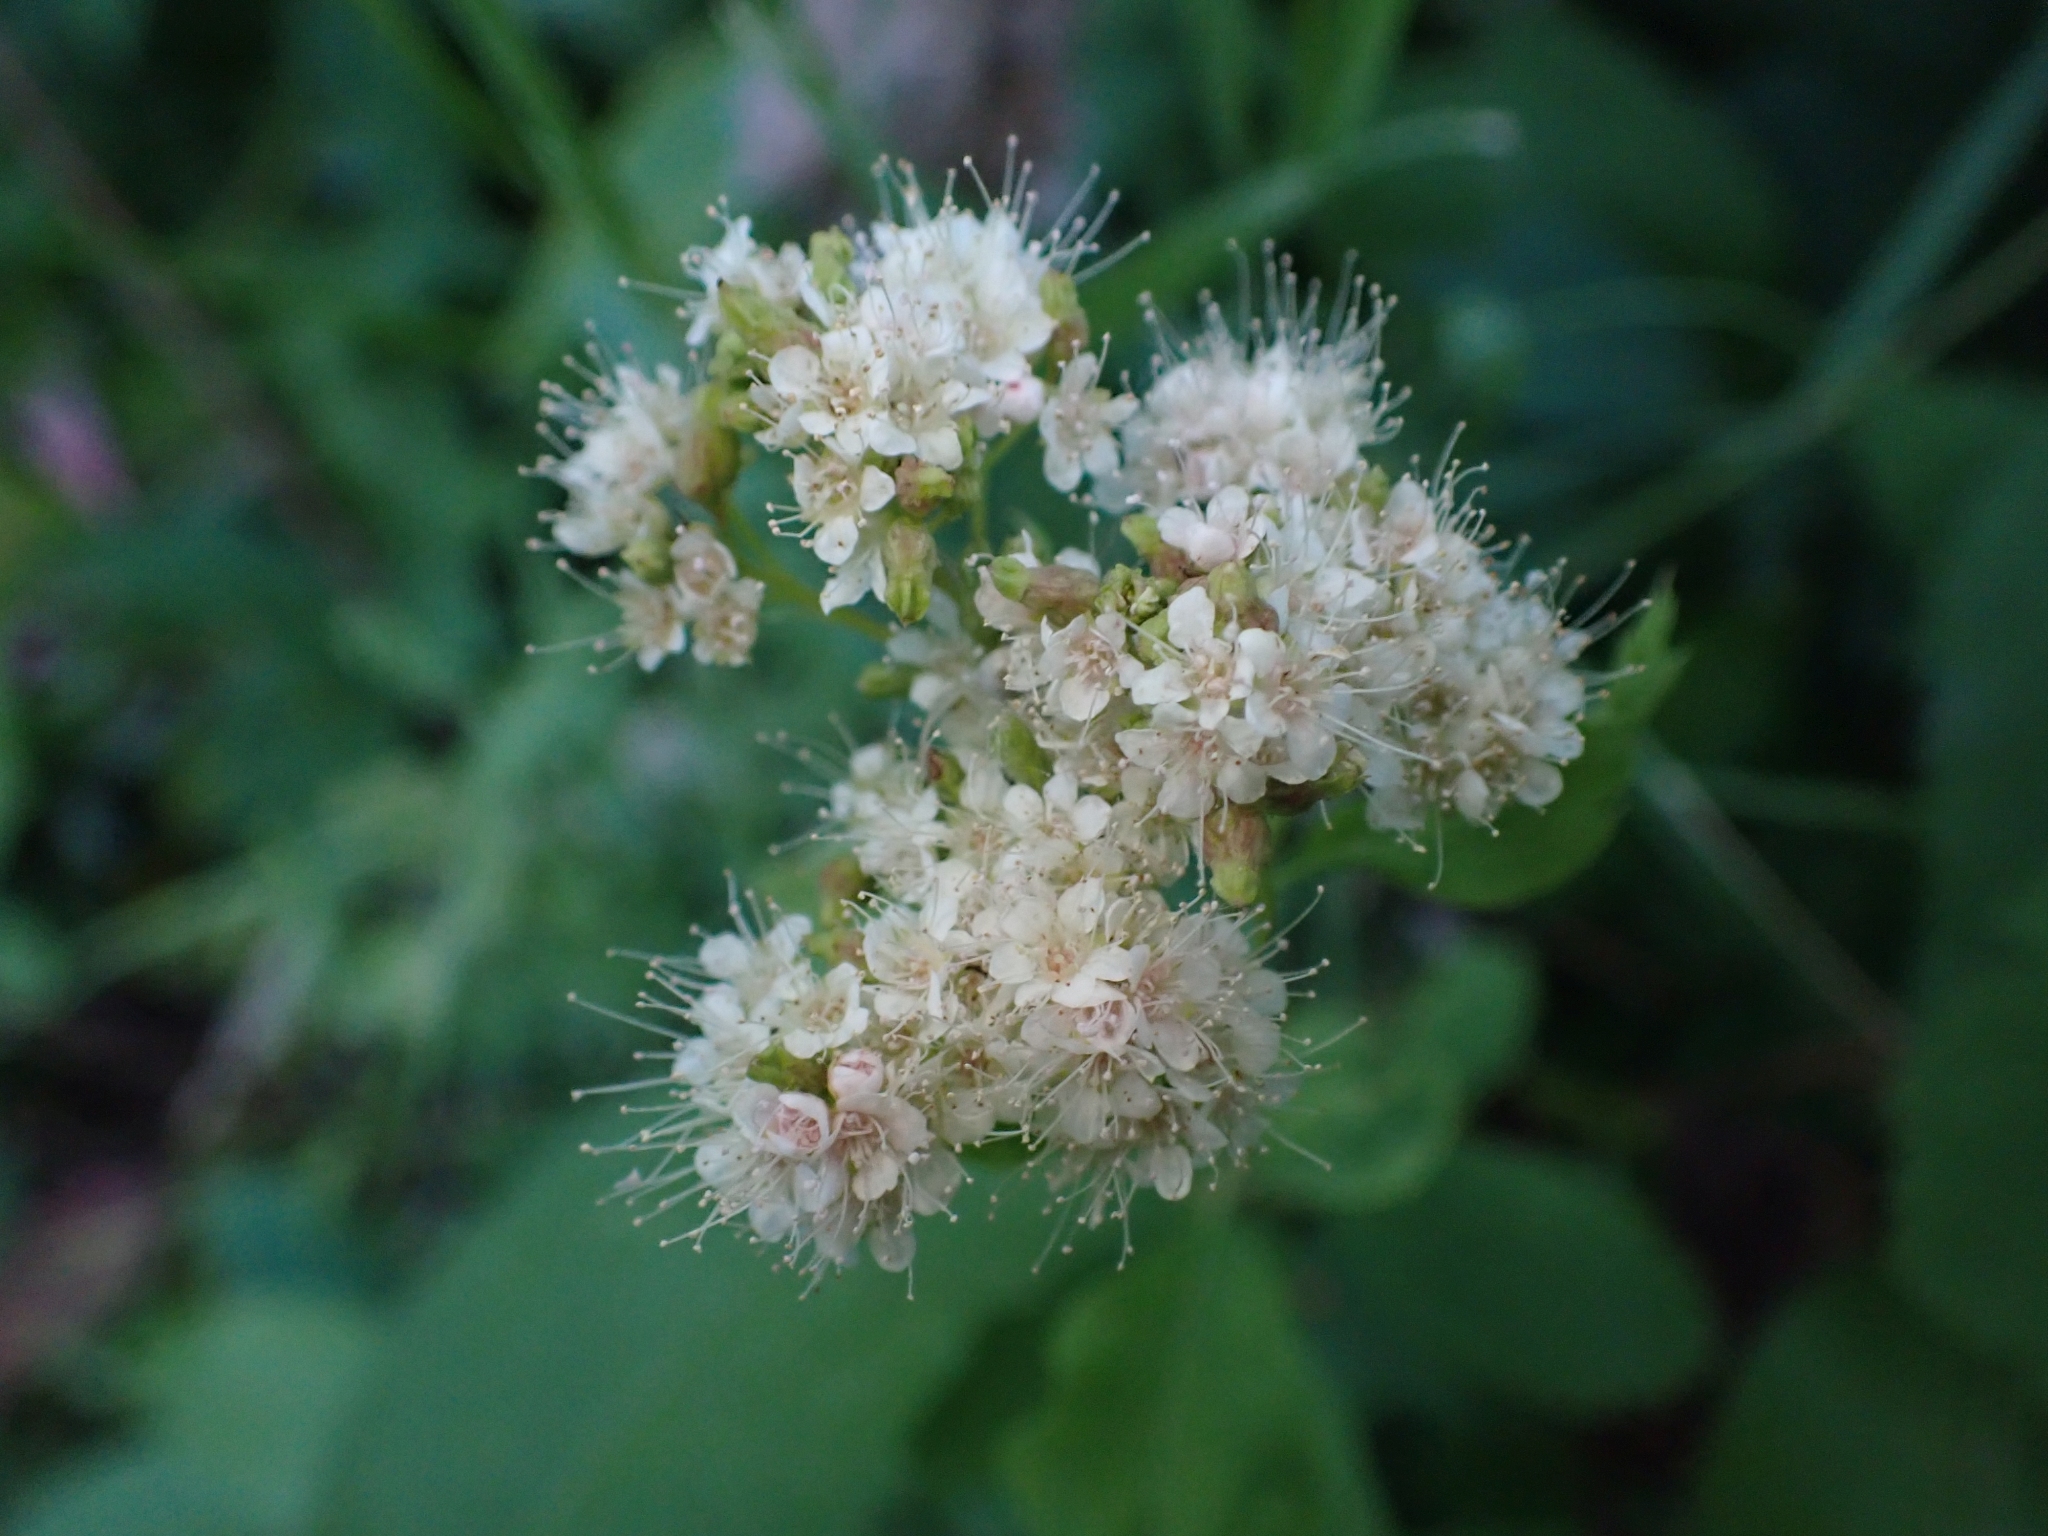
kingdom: Plantae
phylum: Tracheophyta
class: Magnoliopsida
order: Rosales
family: Rosaceae
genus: Spiraea
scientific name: Spiraea lucida
